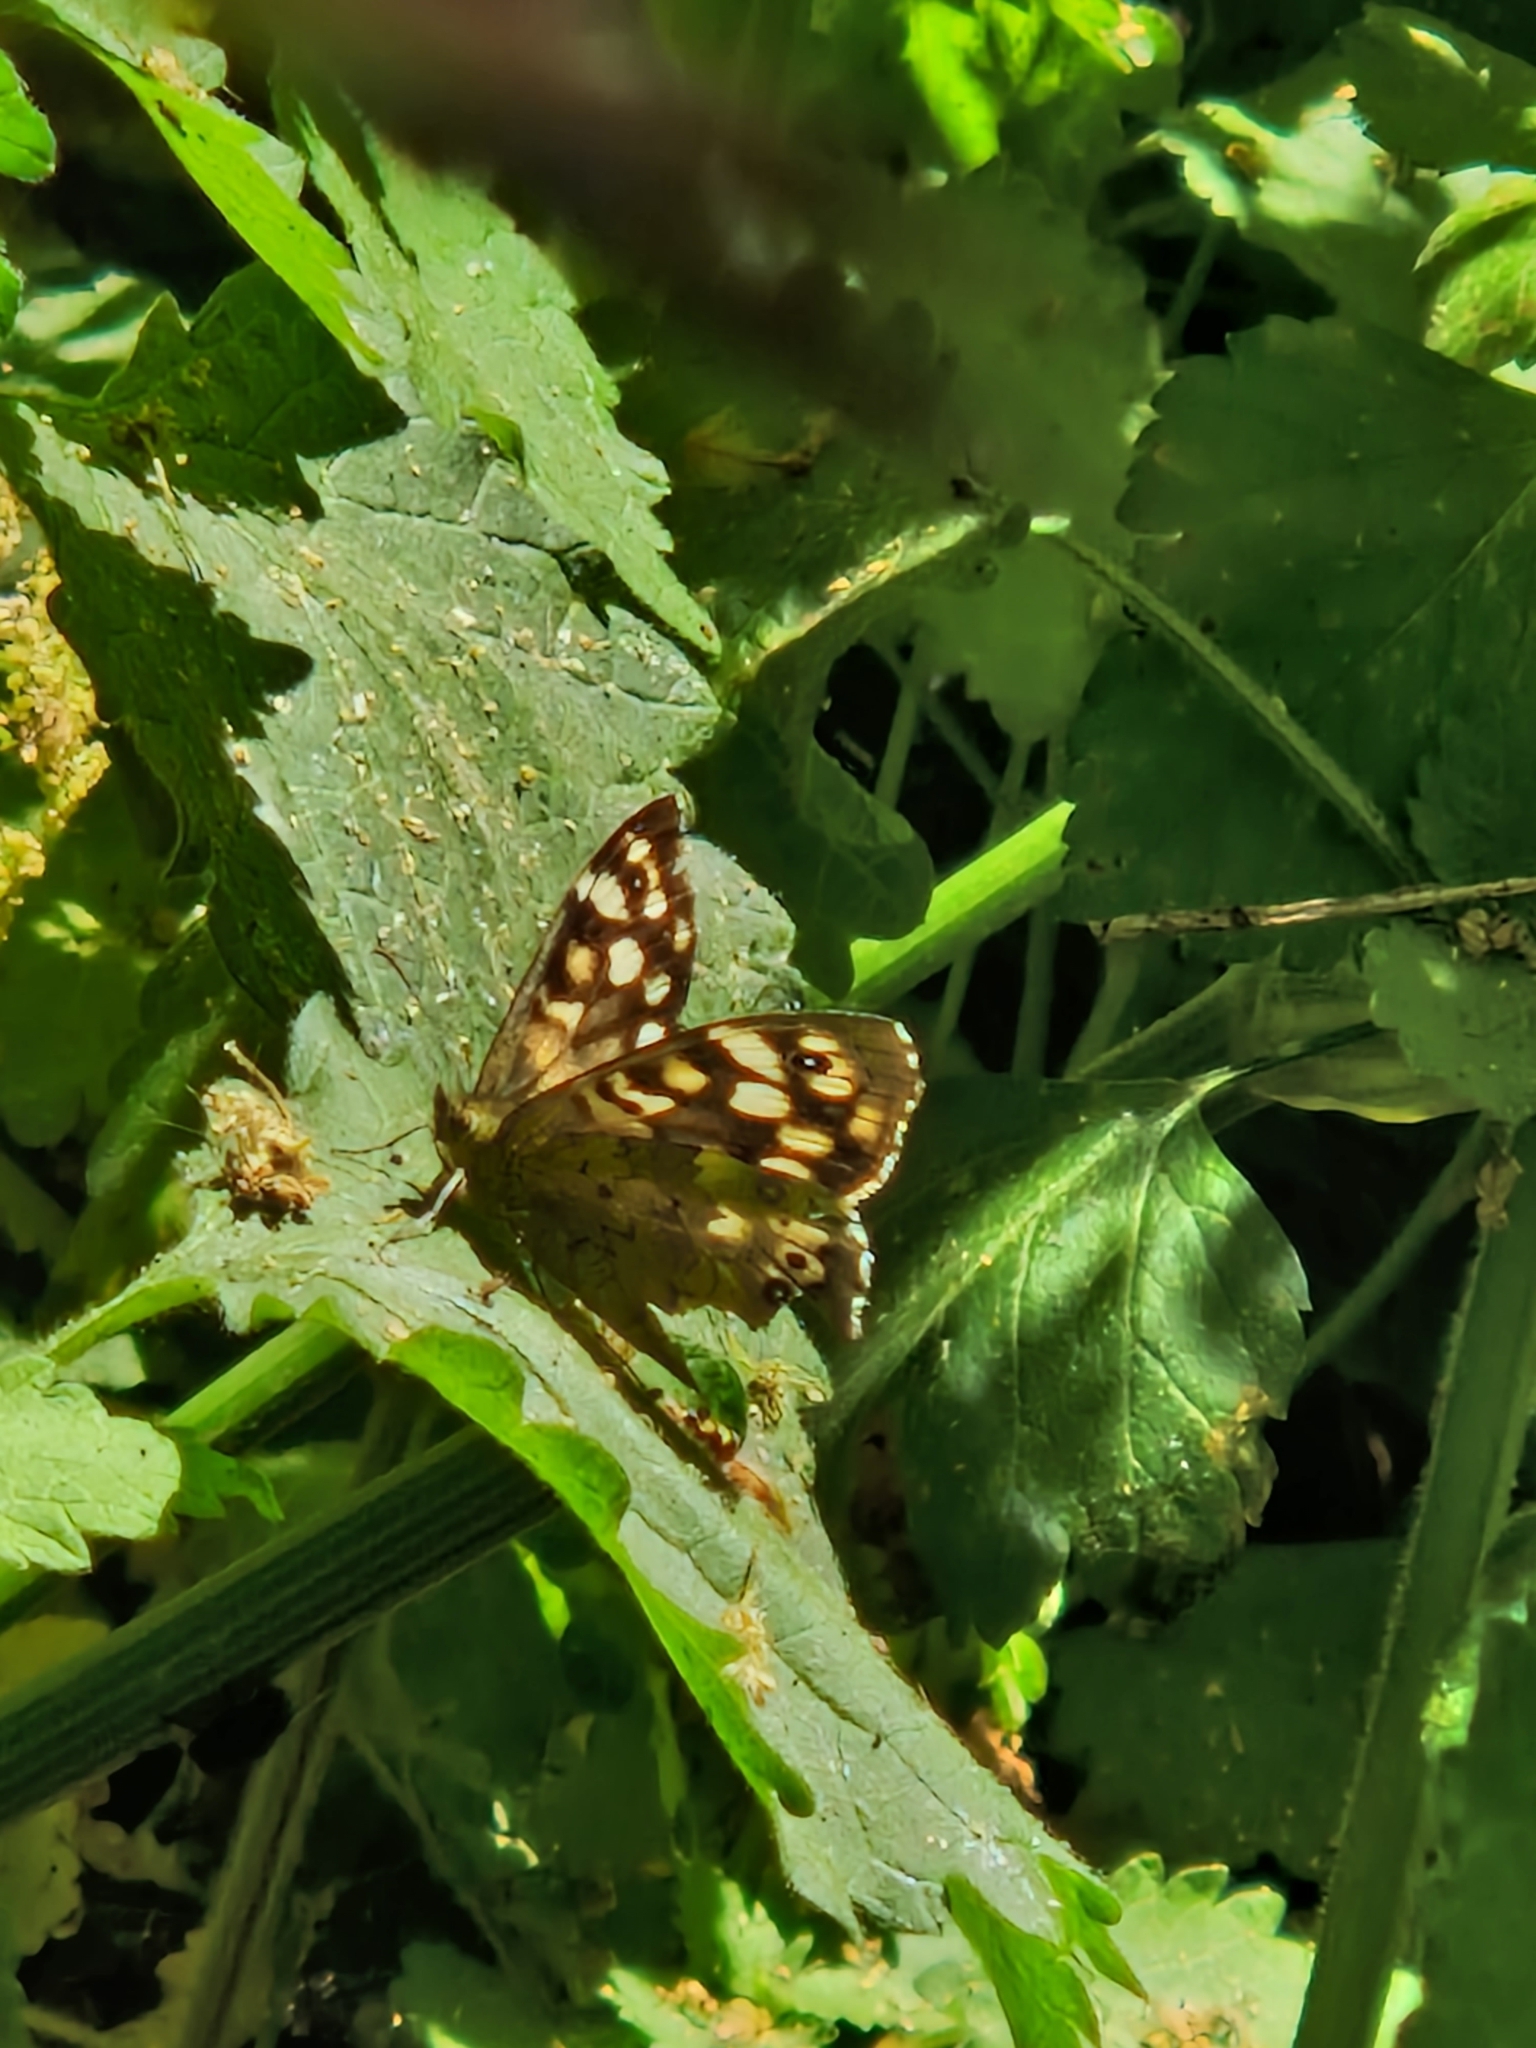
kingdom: Animalia
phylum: Arthropoda
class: Insecta
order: Lepidoptera
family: Nymphalidae
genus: Pararge
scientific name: Pararge aegeria
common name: Speckled wood
